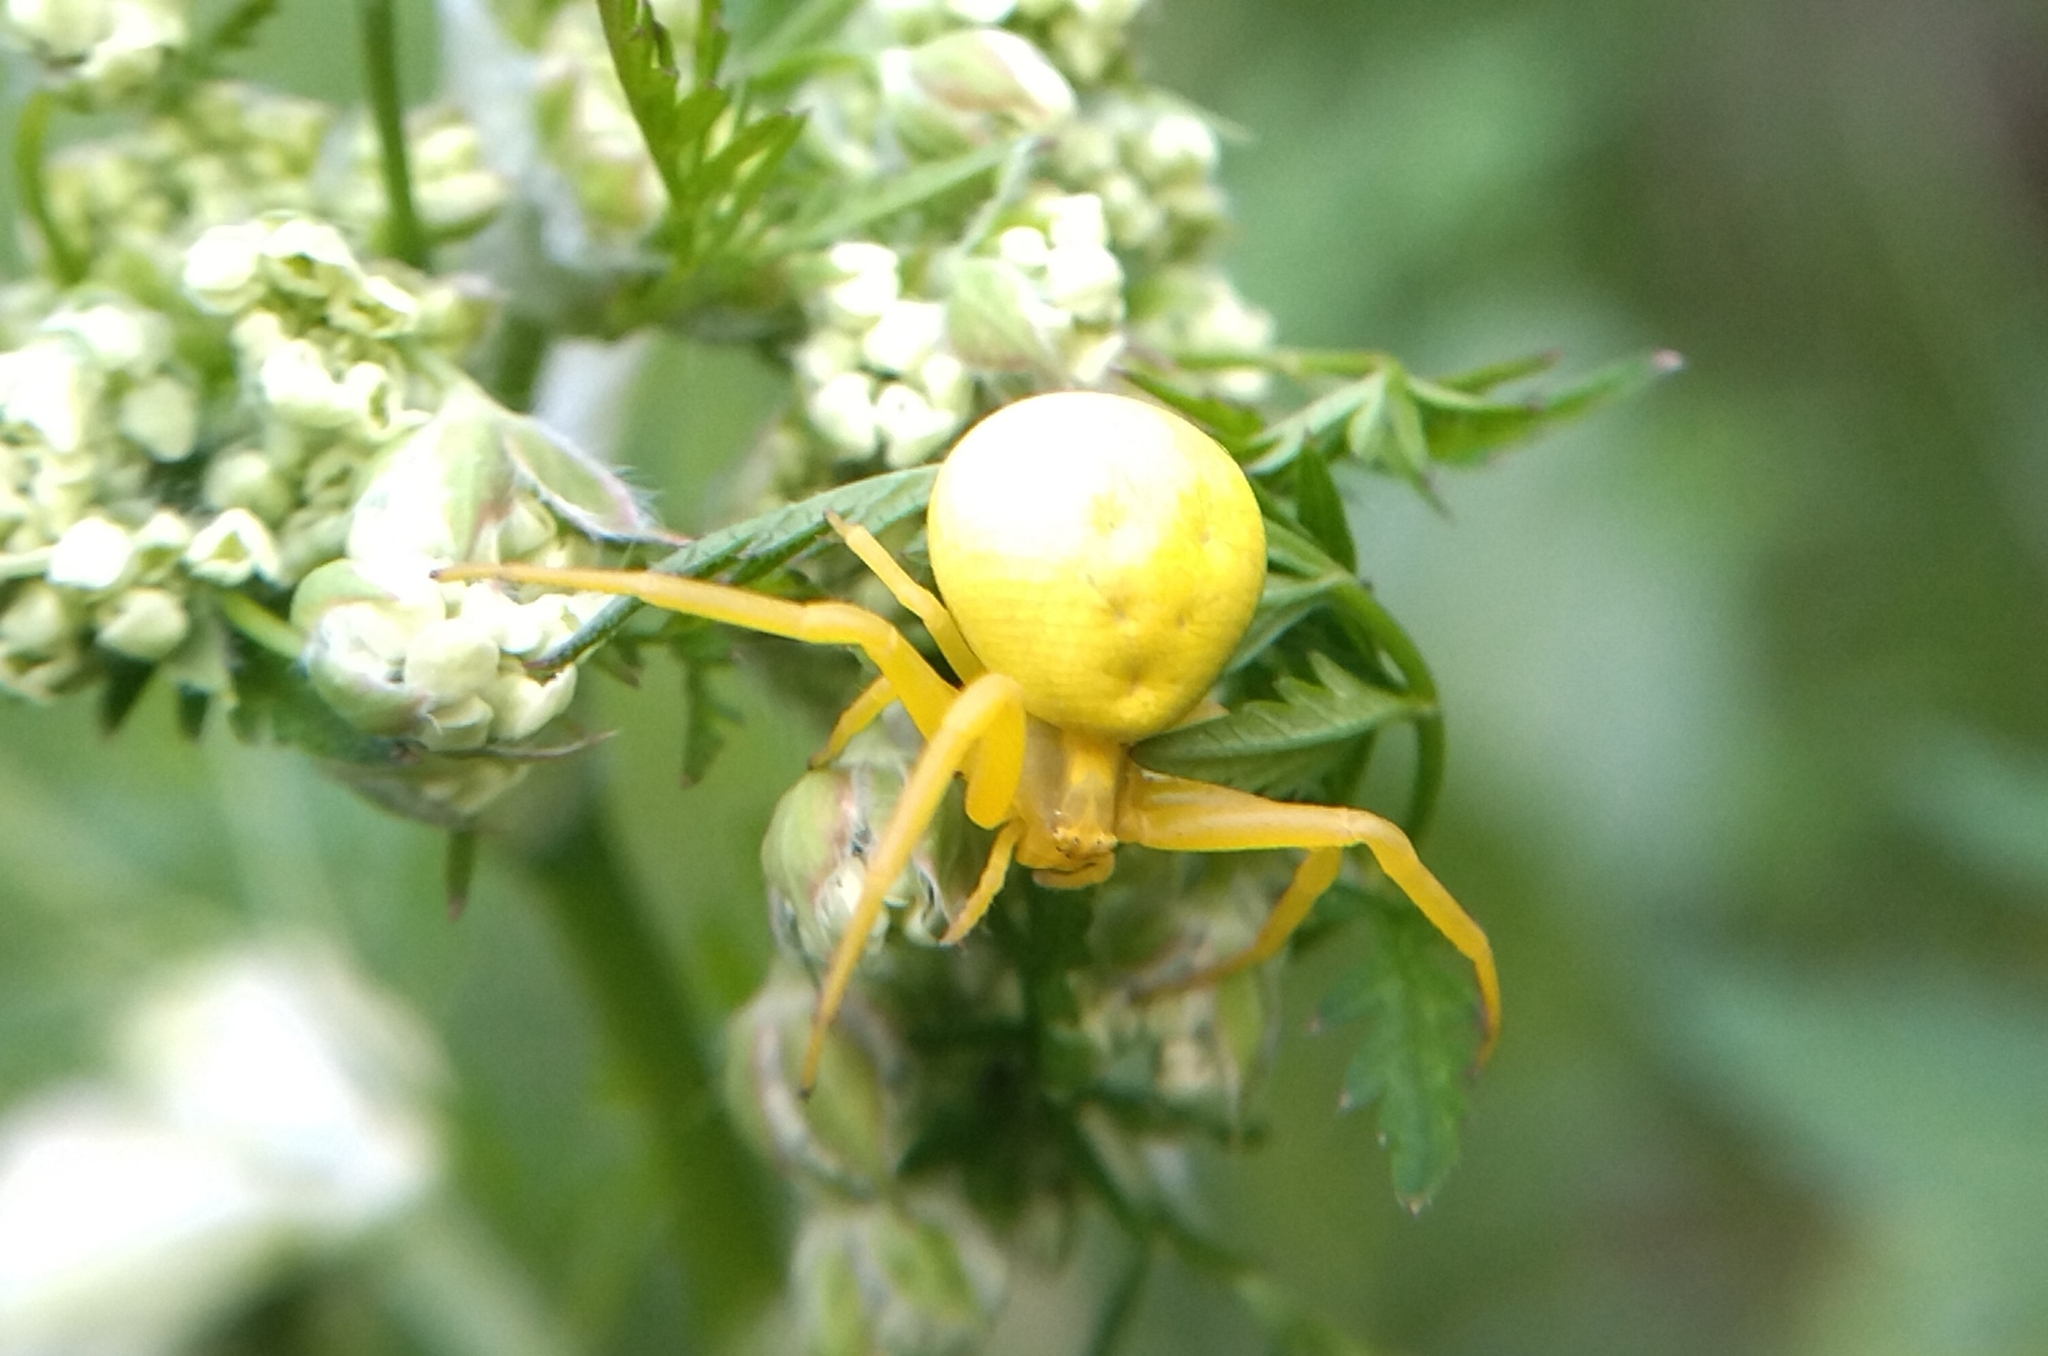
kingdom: Animalia
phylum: Arthropoda
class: Arachnida
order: Araneae
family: Thomisidae
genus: Misumena
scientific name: Misumena vatia
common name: Goldenrod crab spider
